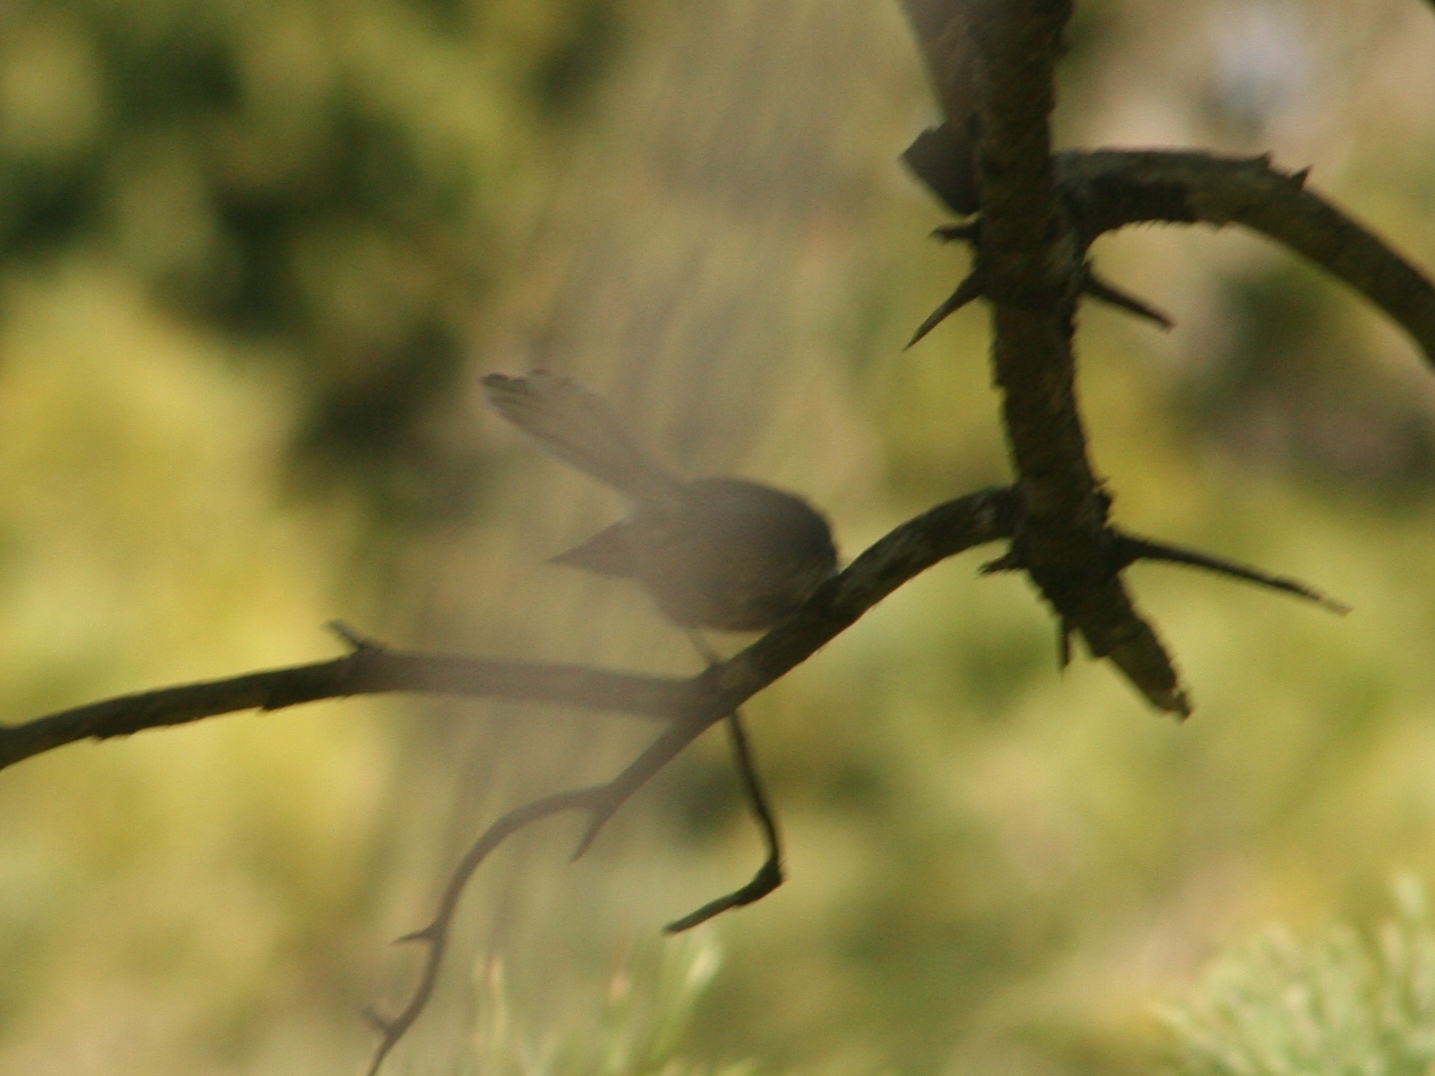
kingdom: Animalia
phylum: Chordata
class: Aves
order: Passeriformes
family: Rhipiduridae
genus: Rhipidura
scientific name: Rhipidura fuliginosa
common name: New zealand fantail
